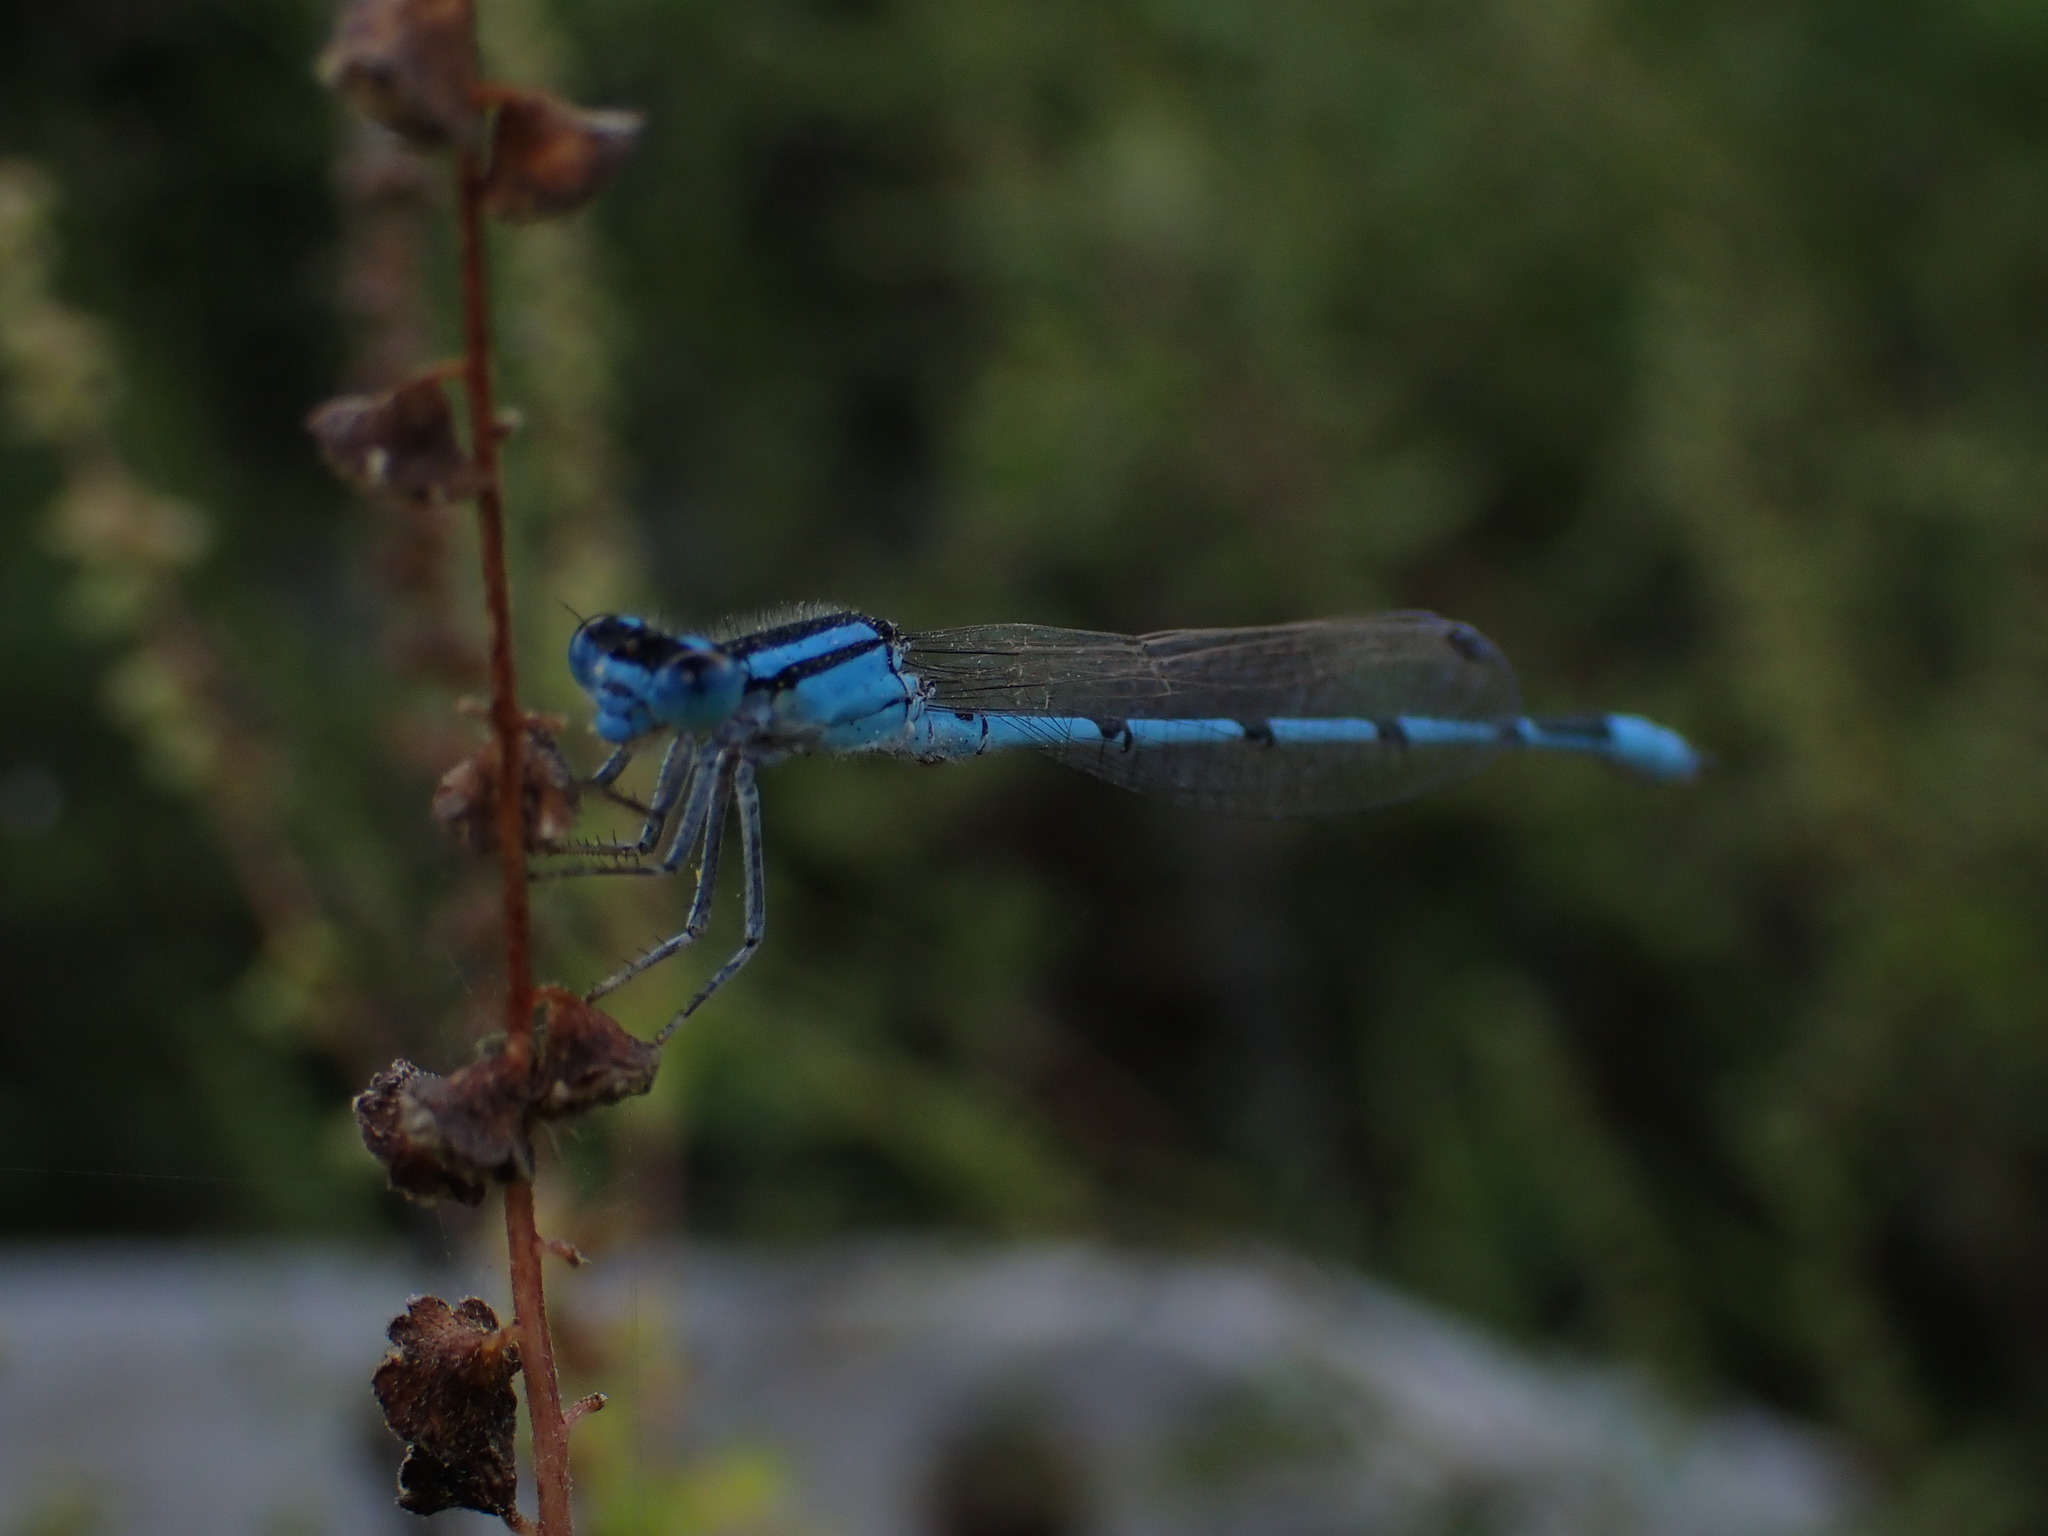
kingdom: Animalia
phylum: Arthropoda
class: Insecta
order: Odonata
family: Coenagrionidae
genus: Enallagma
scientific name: Enallagma civile
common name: Damselfly
